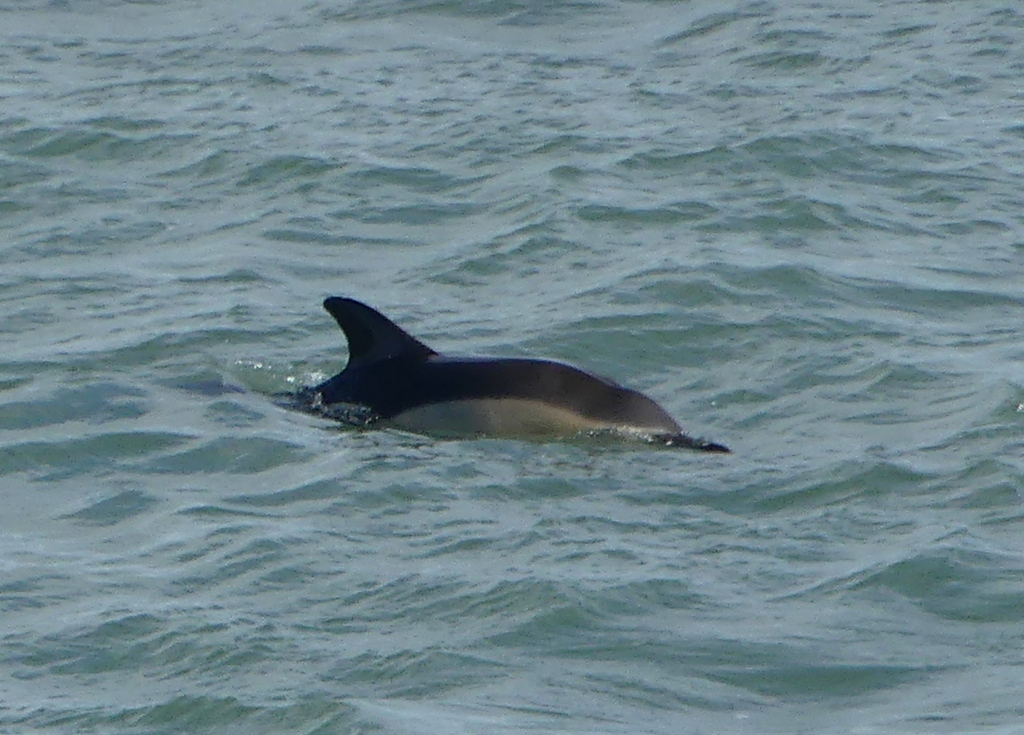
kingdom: Animalia
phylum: Chordata
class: Mammalia
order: Cetacea
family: Delphinidae
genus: Delphinus
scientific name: Delphinus delphis
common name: Common dolphin
